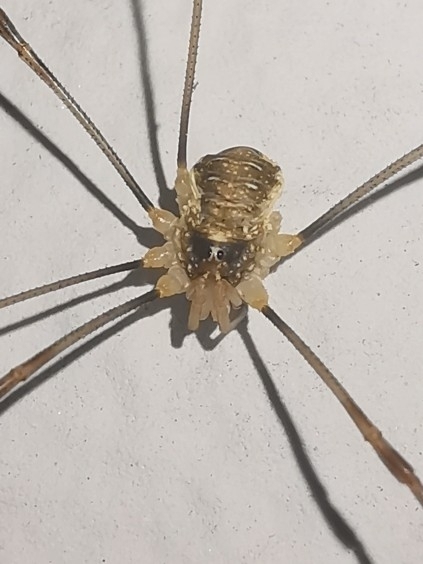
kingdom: Animalia
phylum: Arthropoda
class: Arachnida
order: Opiliones
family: Phalangiidae
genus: Opilio
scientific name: Opilio canestrinii
